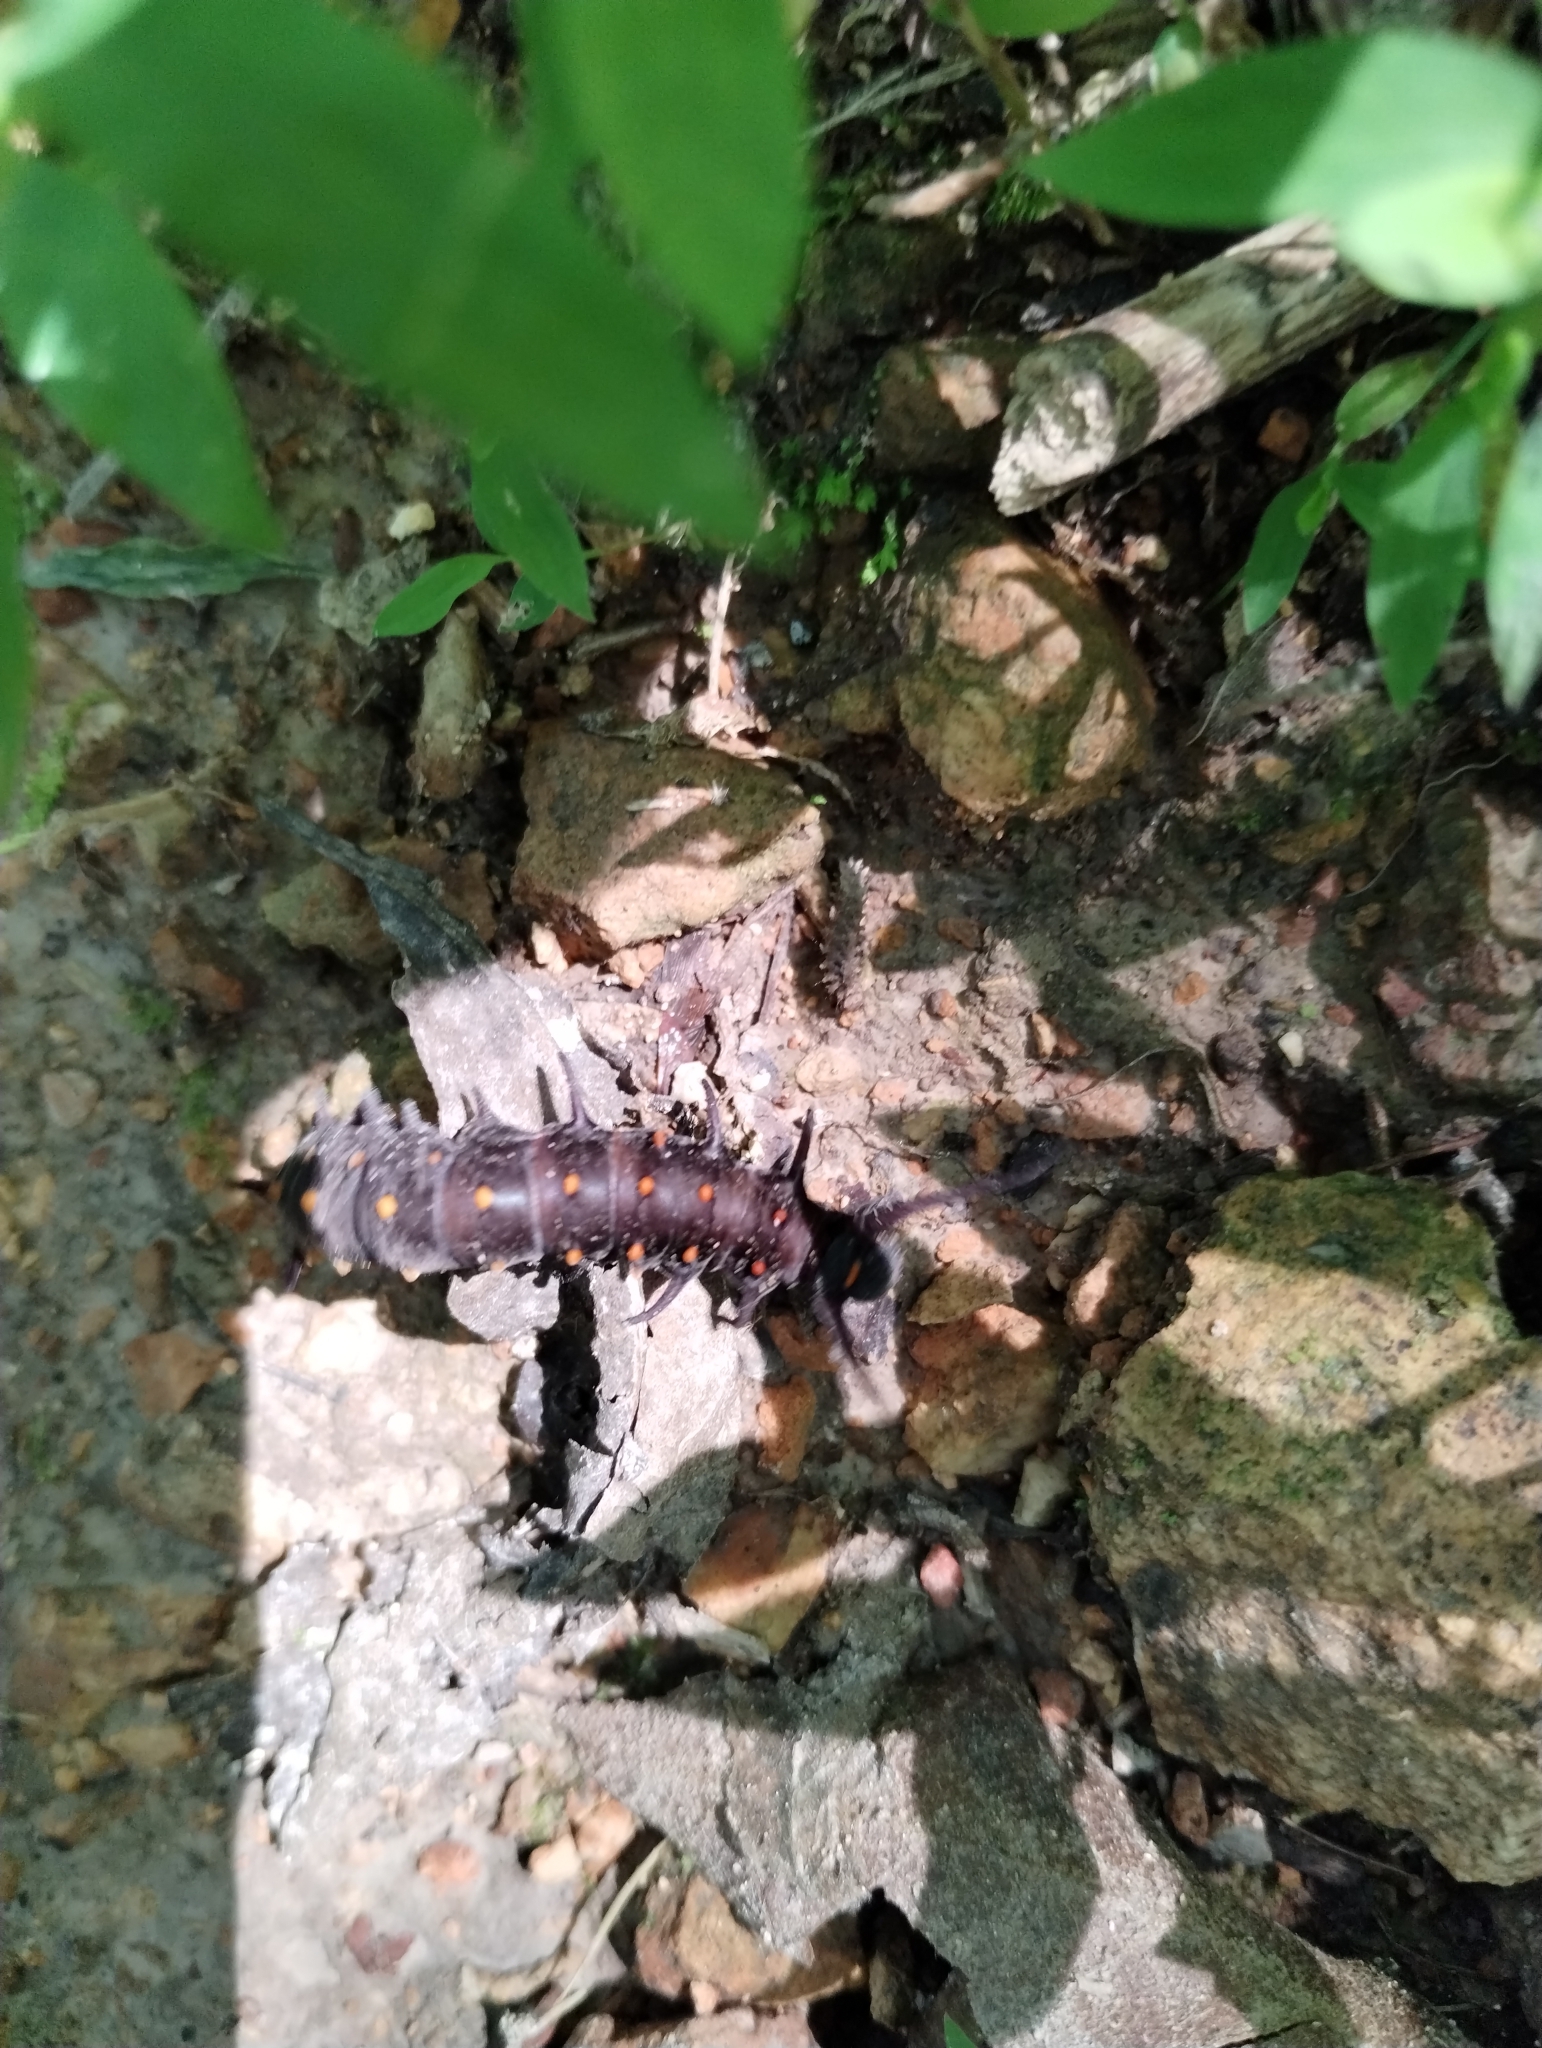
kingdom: Animalia
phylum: Arthropoda
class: Insecta
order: Lepidoptera
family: Papilionidae
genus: Battus
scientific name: Battus philenor
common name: Pipevine swallowtail
